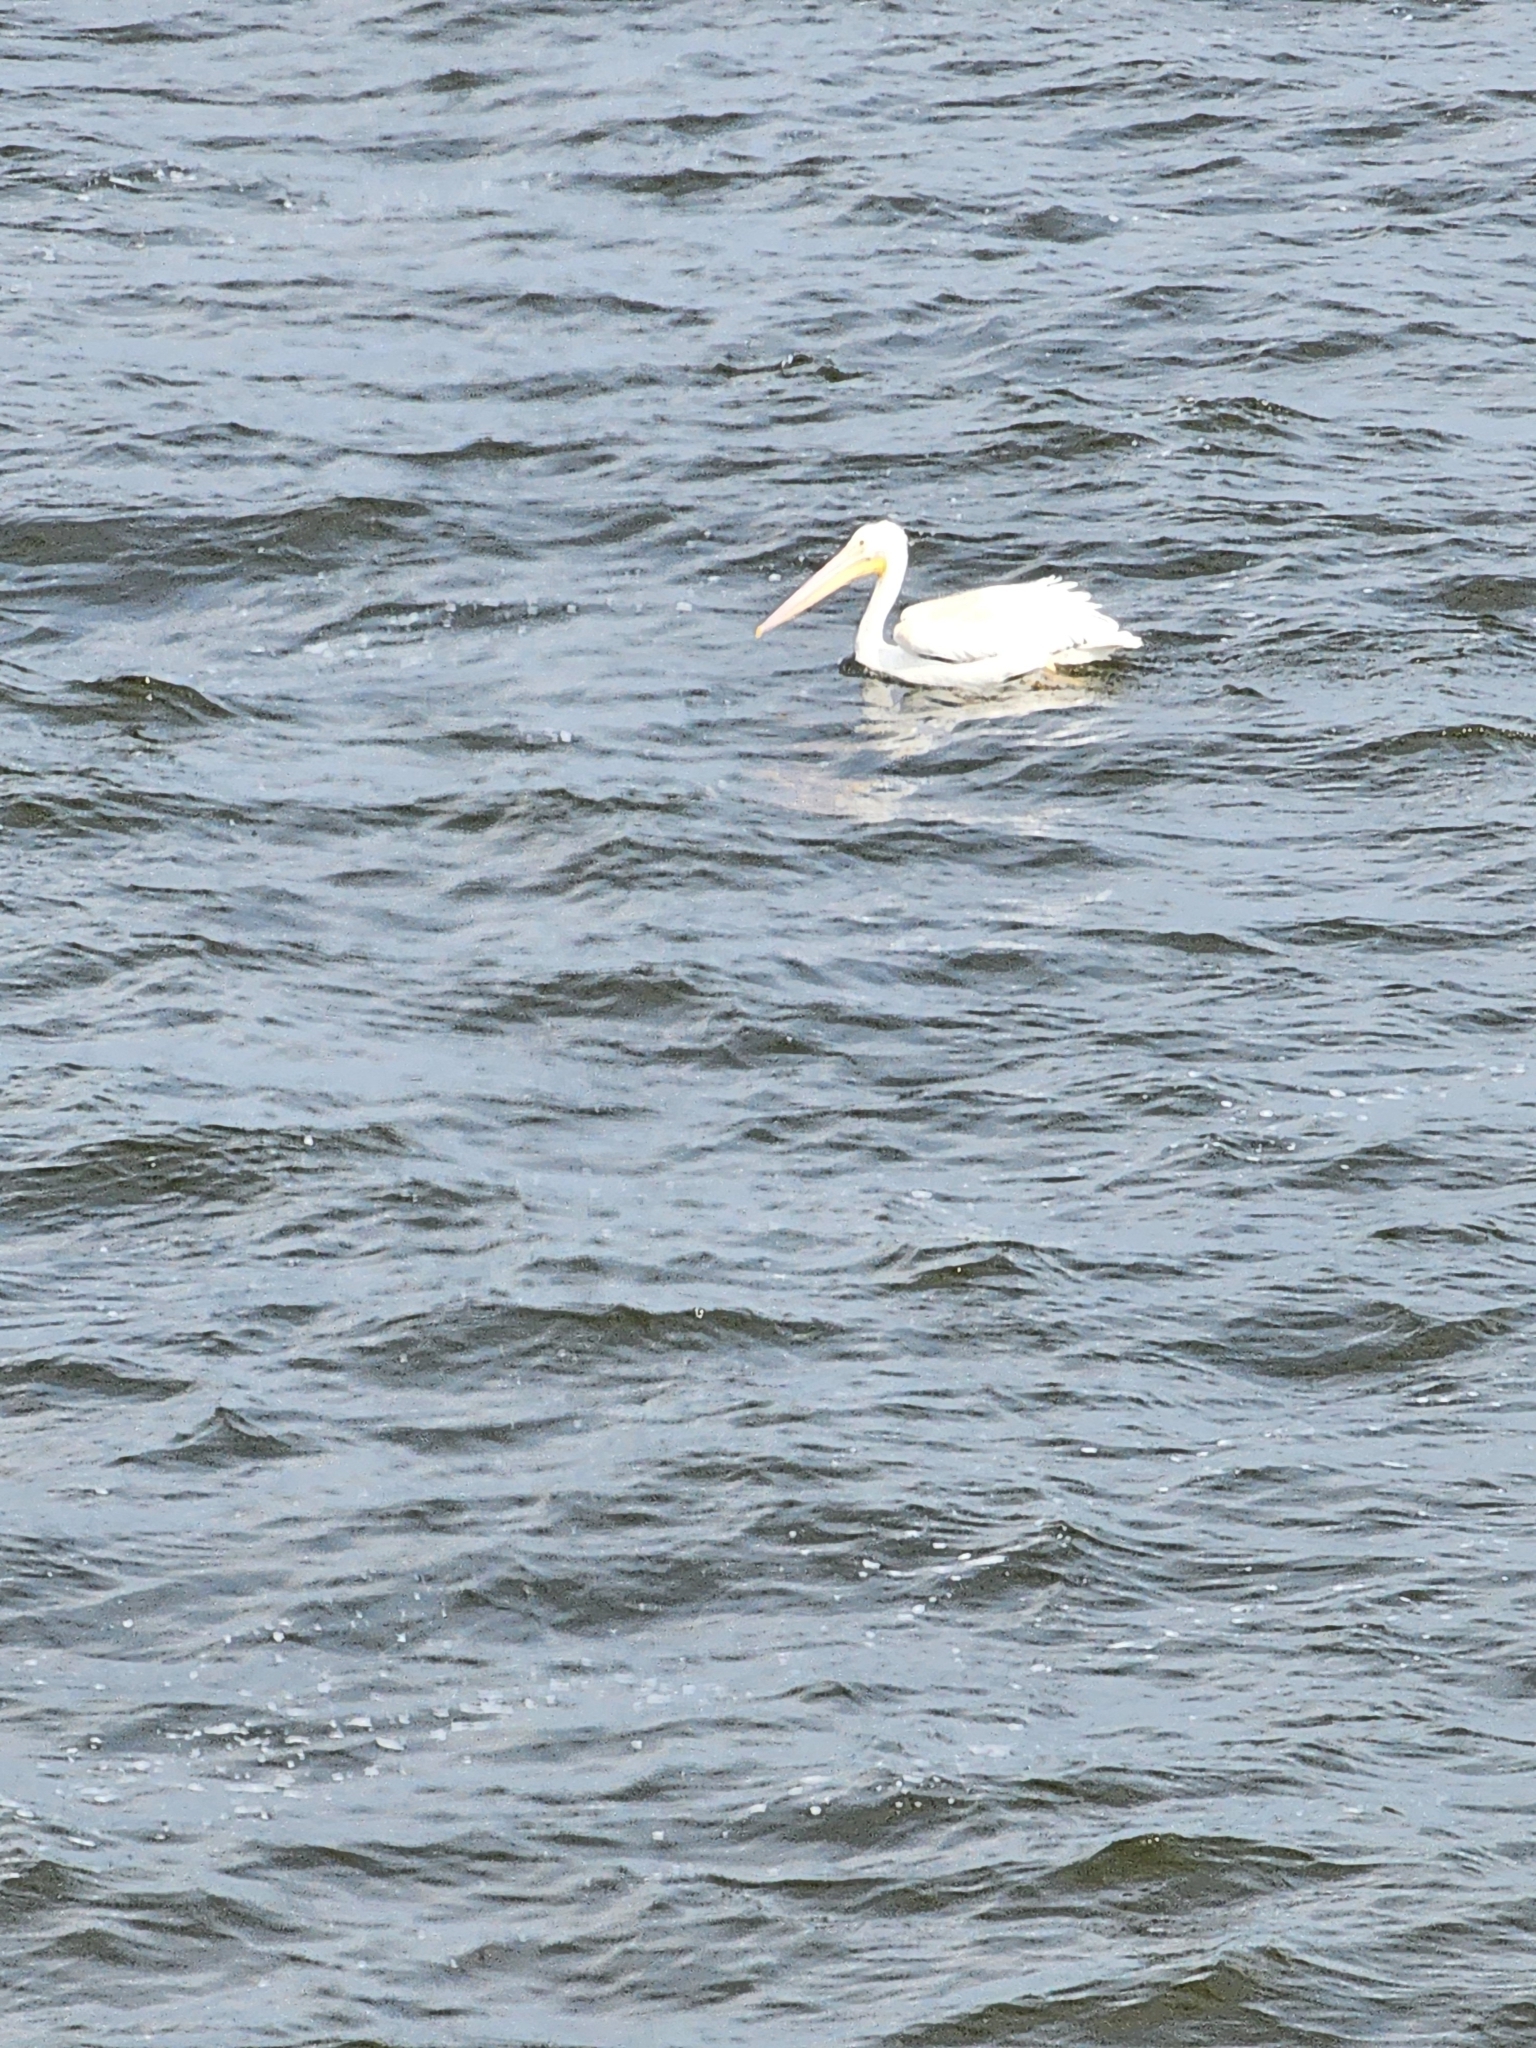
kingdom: Animalia
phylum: Chordata
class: Aves
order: Pelecaniformes
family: Pelecanidae
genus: Pelecanus
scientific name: Pelecanus erythrorhynchos
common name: American white pelican
